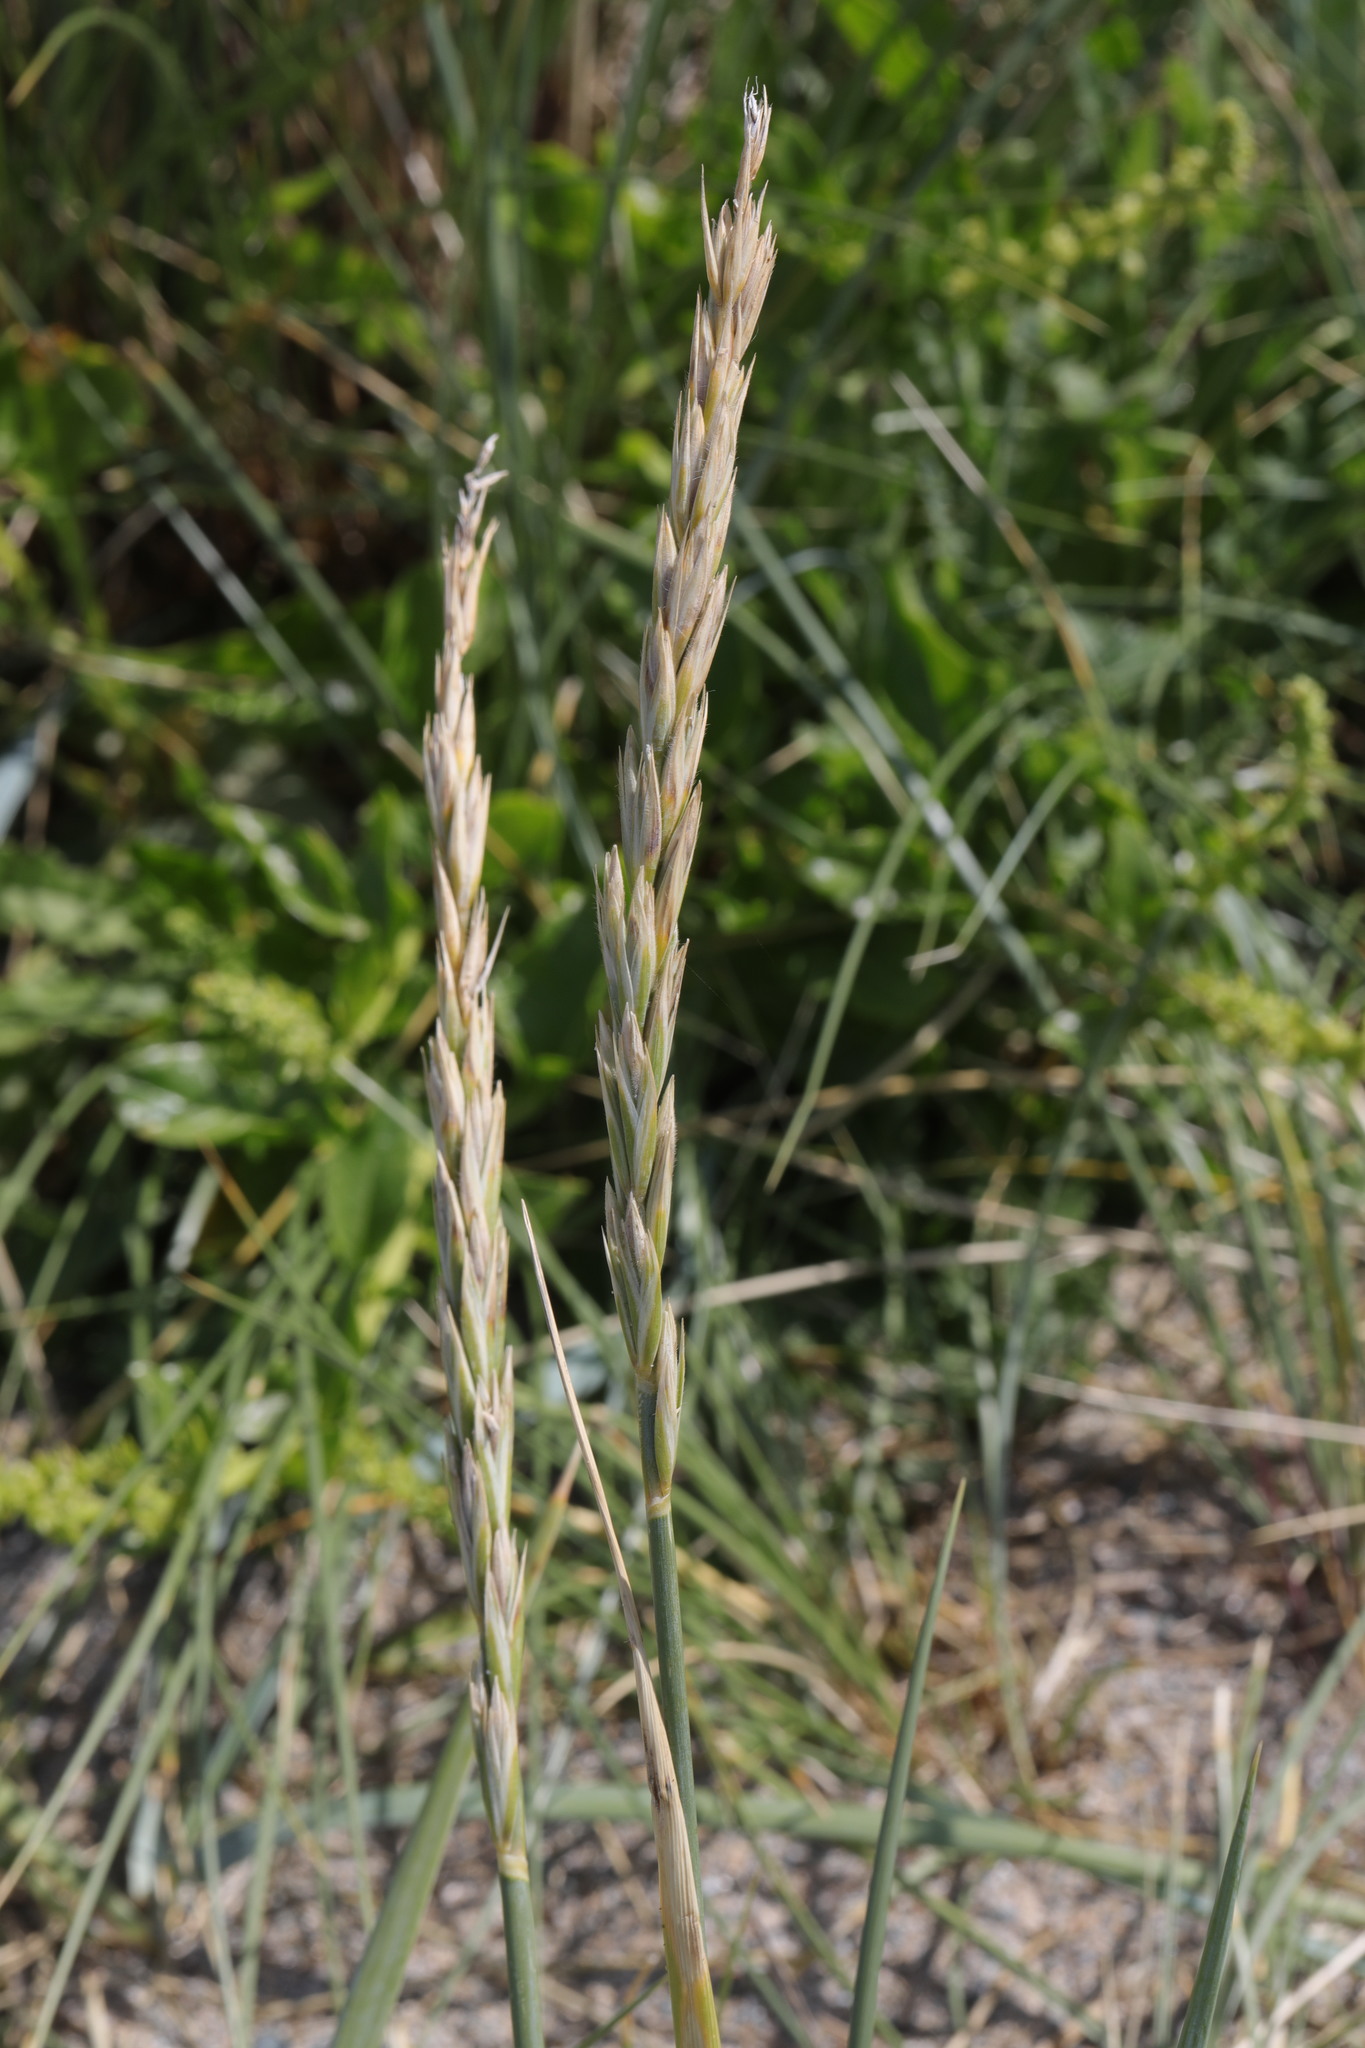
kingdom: Plantae
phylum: Tracheophyta
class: Liliopsida
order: Poales
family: Poaceae
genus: Leymus
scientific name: Leymus arenarius
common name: Lyme-grass
